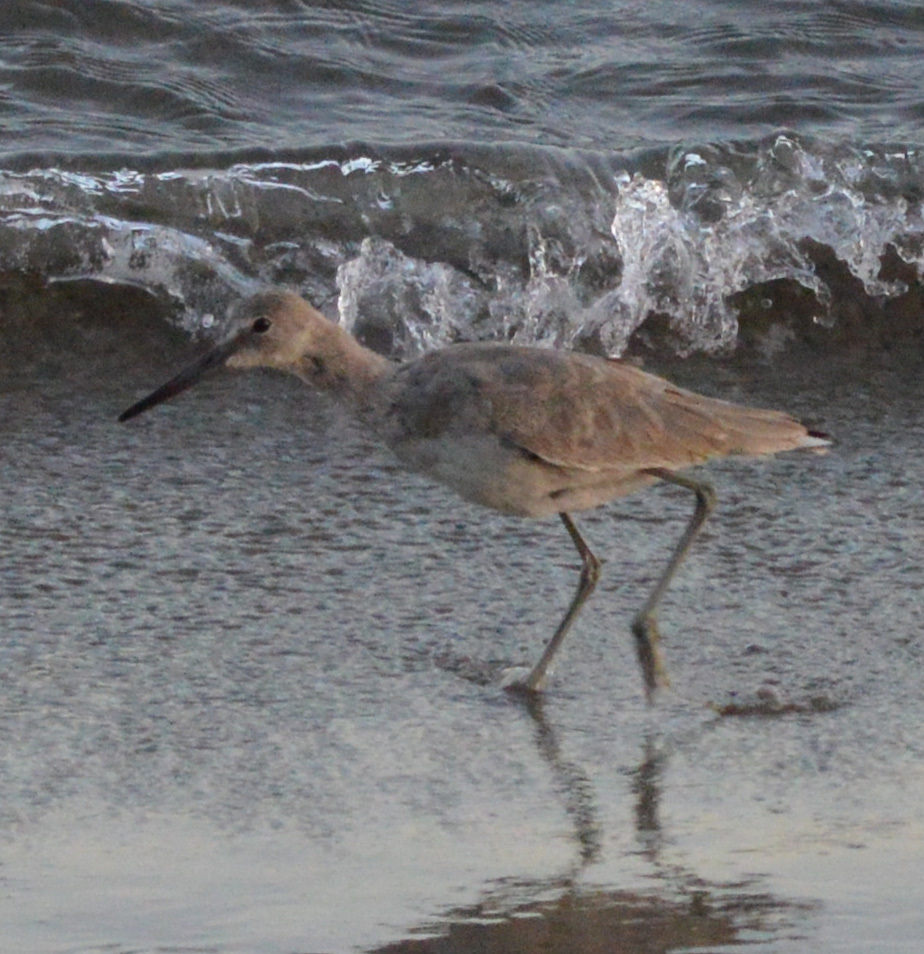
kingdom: Animalia
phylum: Chordata
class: Aves
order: Charadriiformes
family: Scolopacidae
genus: Tringa
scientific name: Tringa semipalmata
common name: Willet
